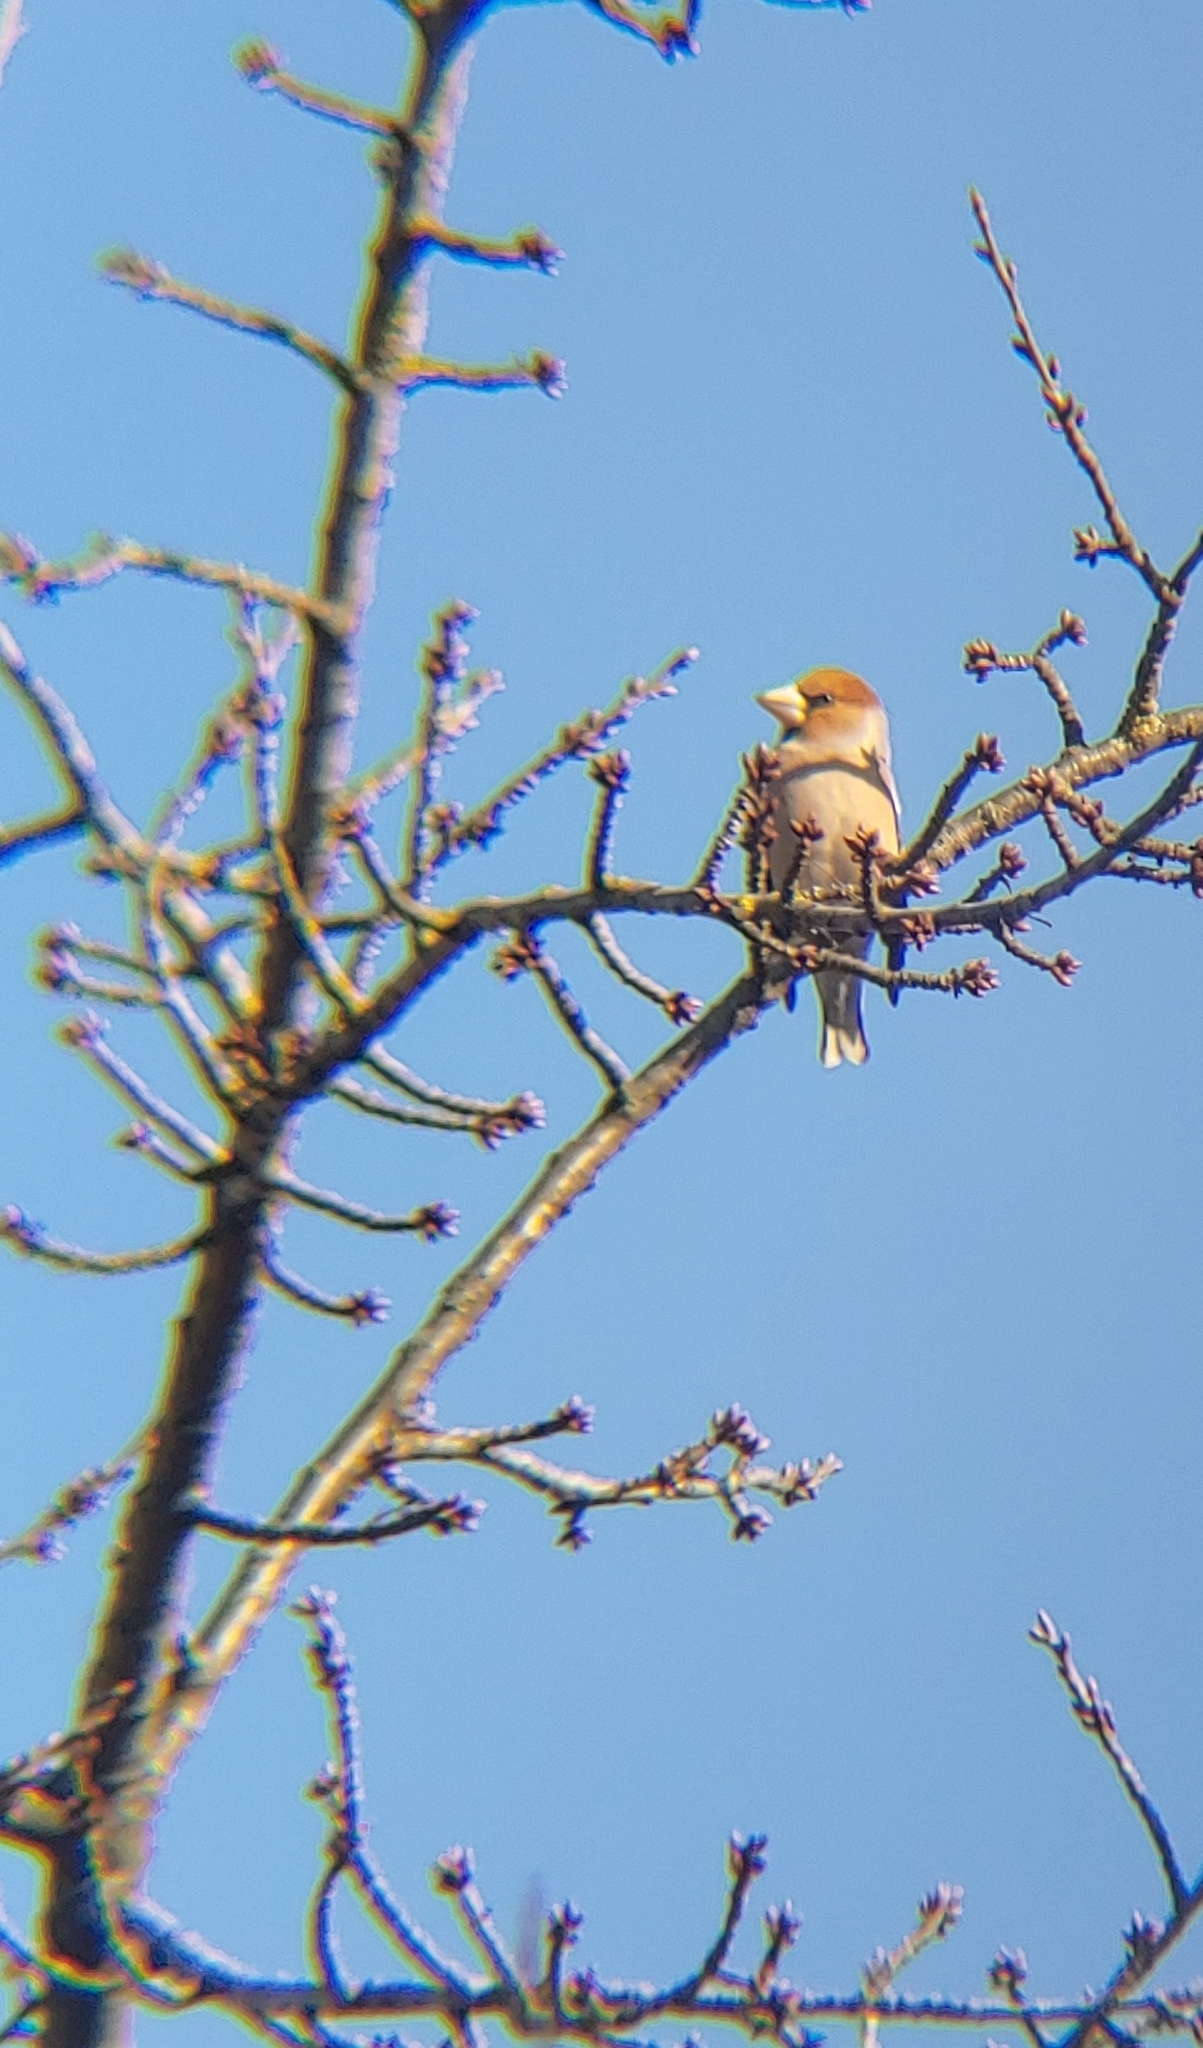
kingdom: Animalia
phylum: Chordata
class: Aves
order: Passeriformes
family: Fringillidae
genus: Coccothraustes
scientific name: Coccothraustes coccothraustes
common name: Hawfinch
